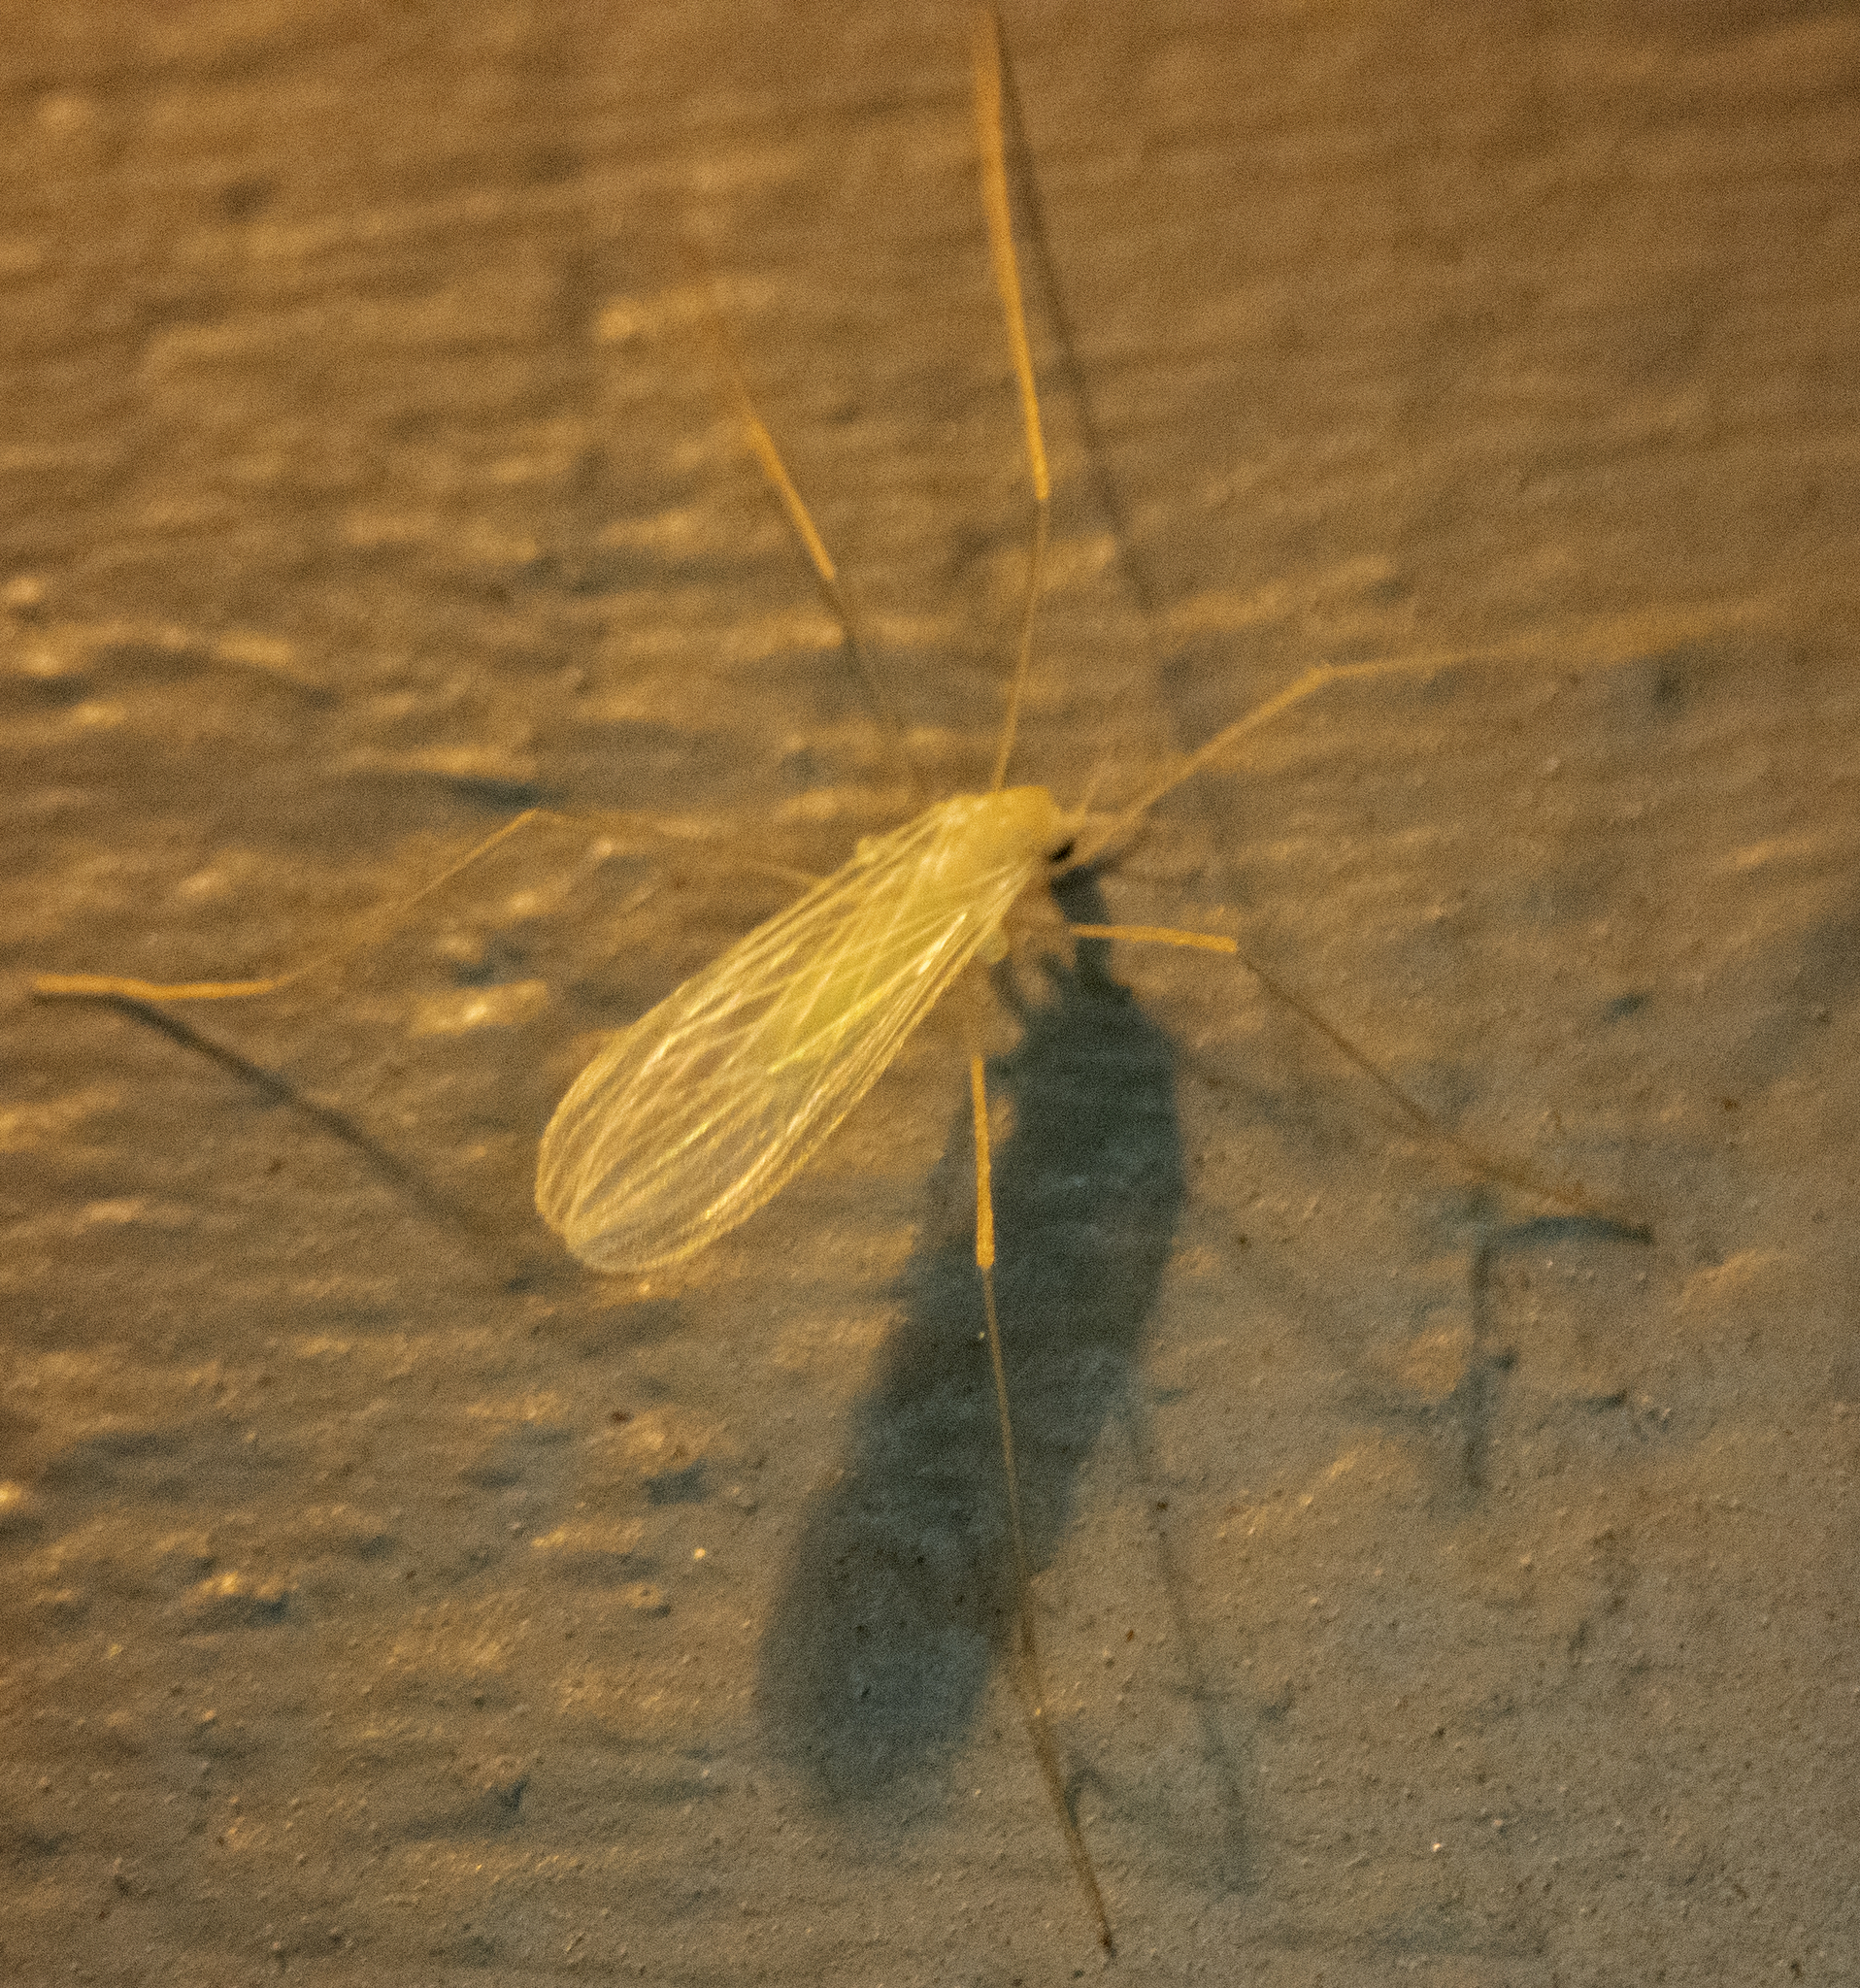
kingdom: Animalia
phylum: Arthropoda
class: Insecta
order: Diptera
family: Limoniidae
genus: Erioptera
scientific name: Erioptera
